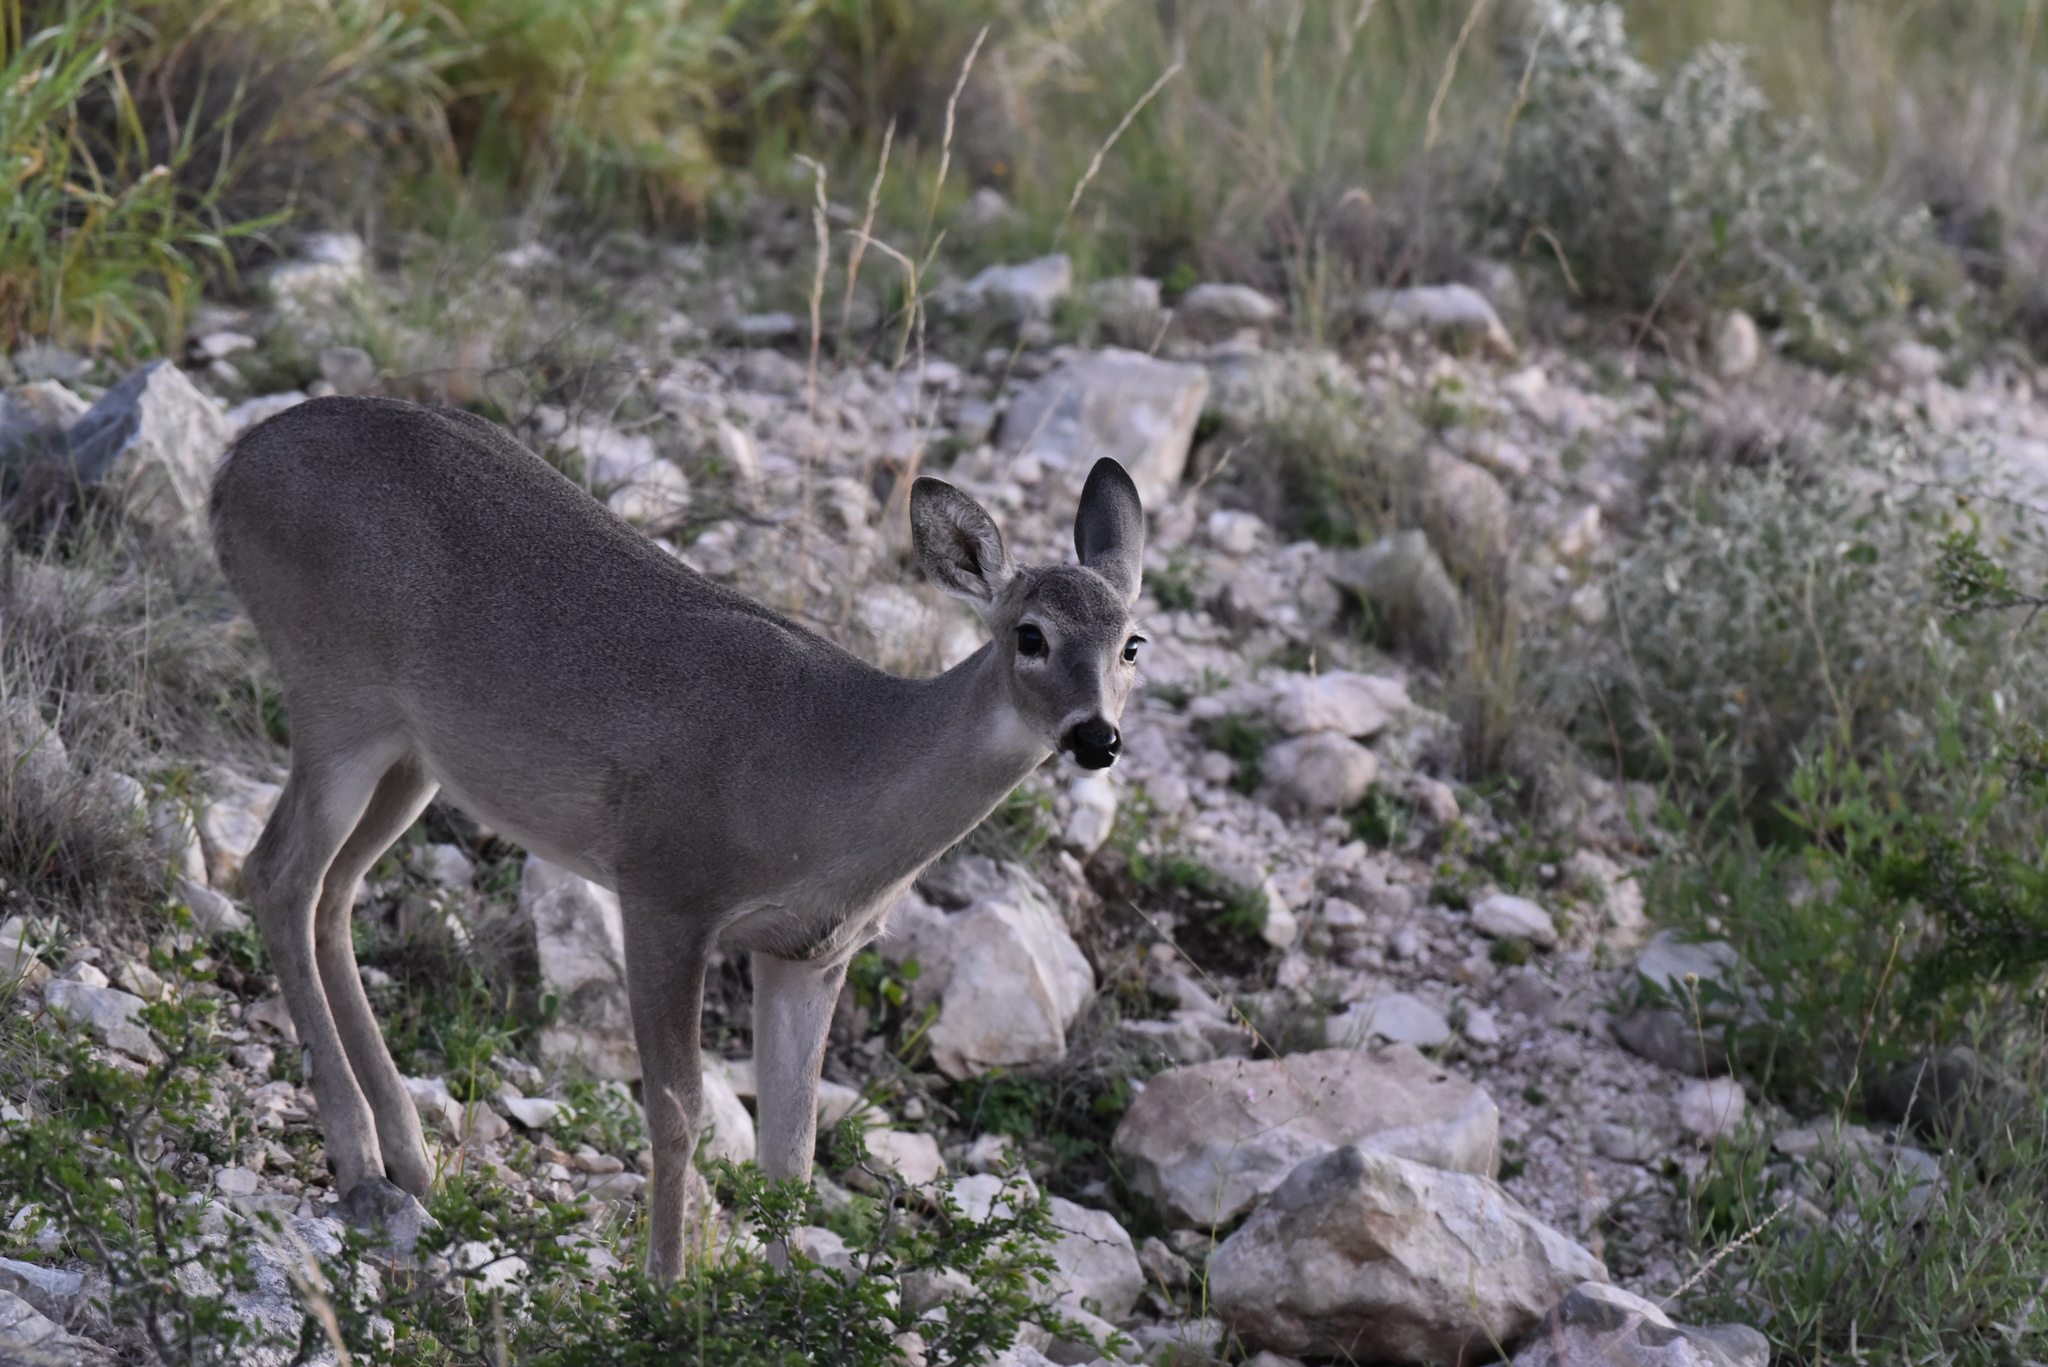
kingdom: Animalia
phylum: Chordata
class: Mammalia
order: Artiodactyla
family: Cervidae
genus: Odocoileus
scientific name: Odocoileus virginianus
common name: White-tailed deer
